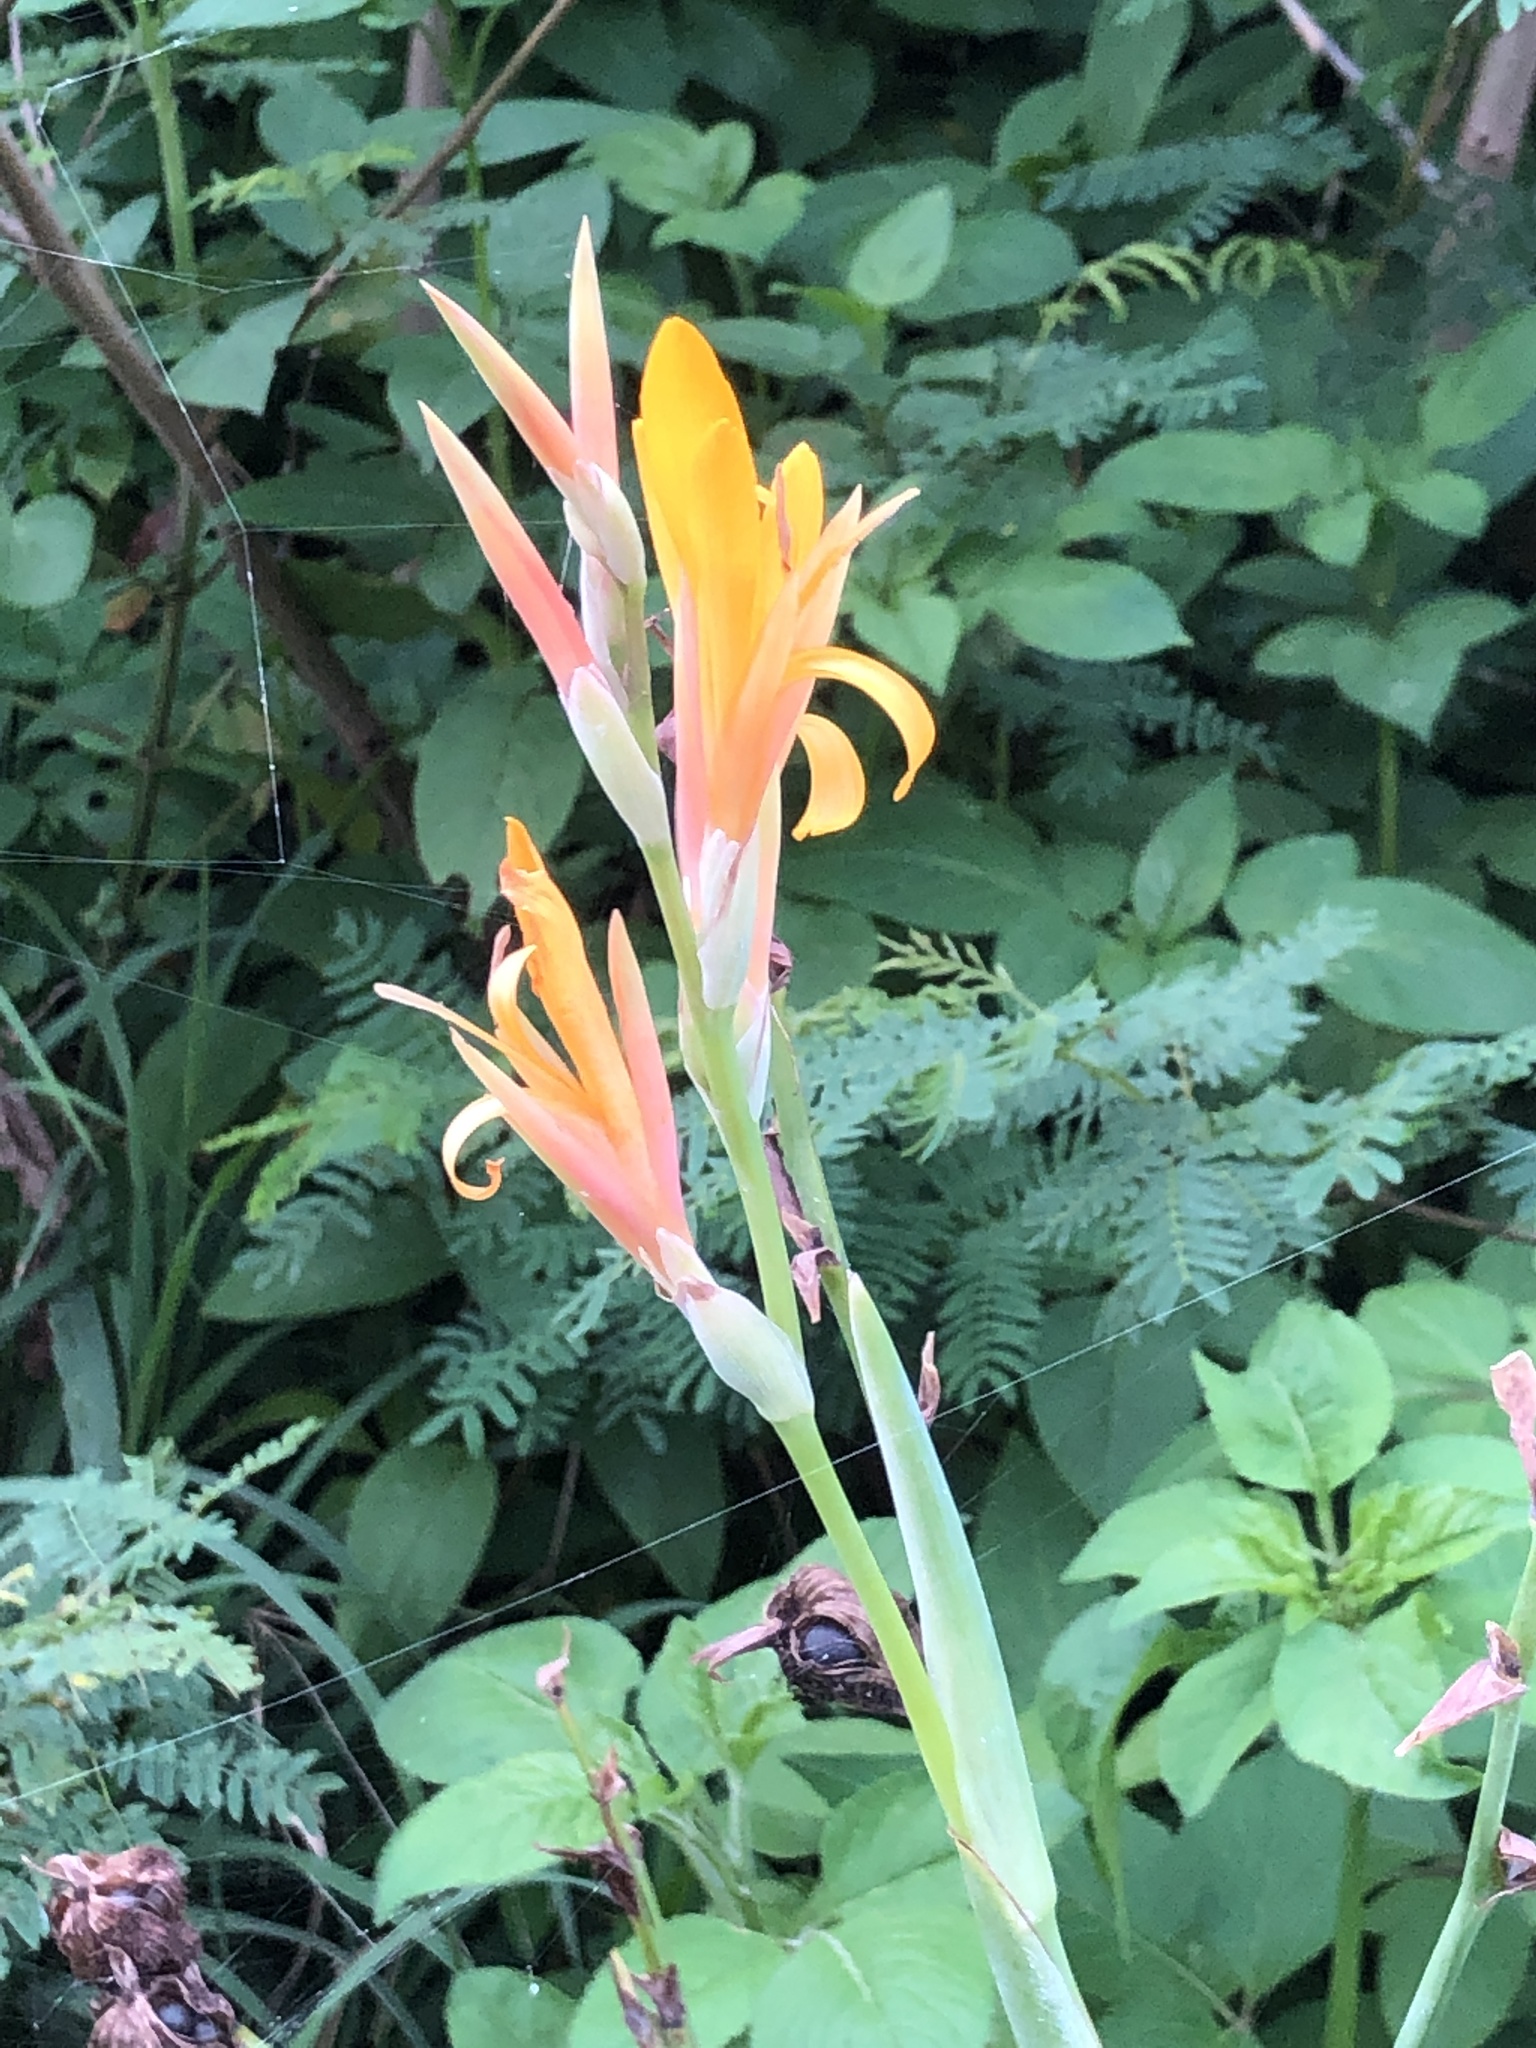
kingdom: Plantae
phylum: Tracheophyta
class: Liliopsida
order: Zingiberales
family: Cannaceae
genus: Canna
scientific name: Canna indica
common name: Indian shot
